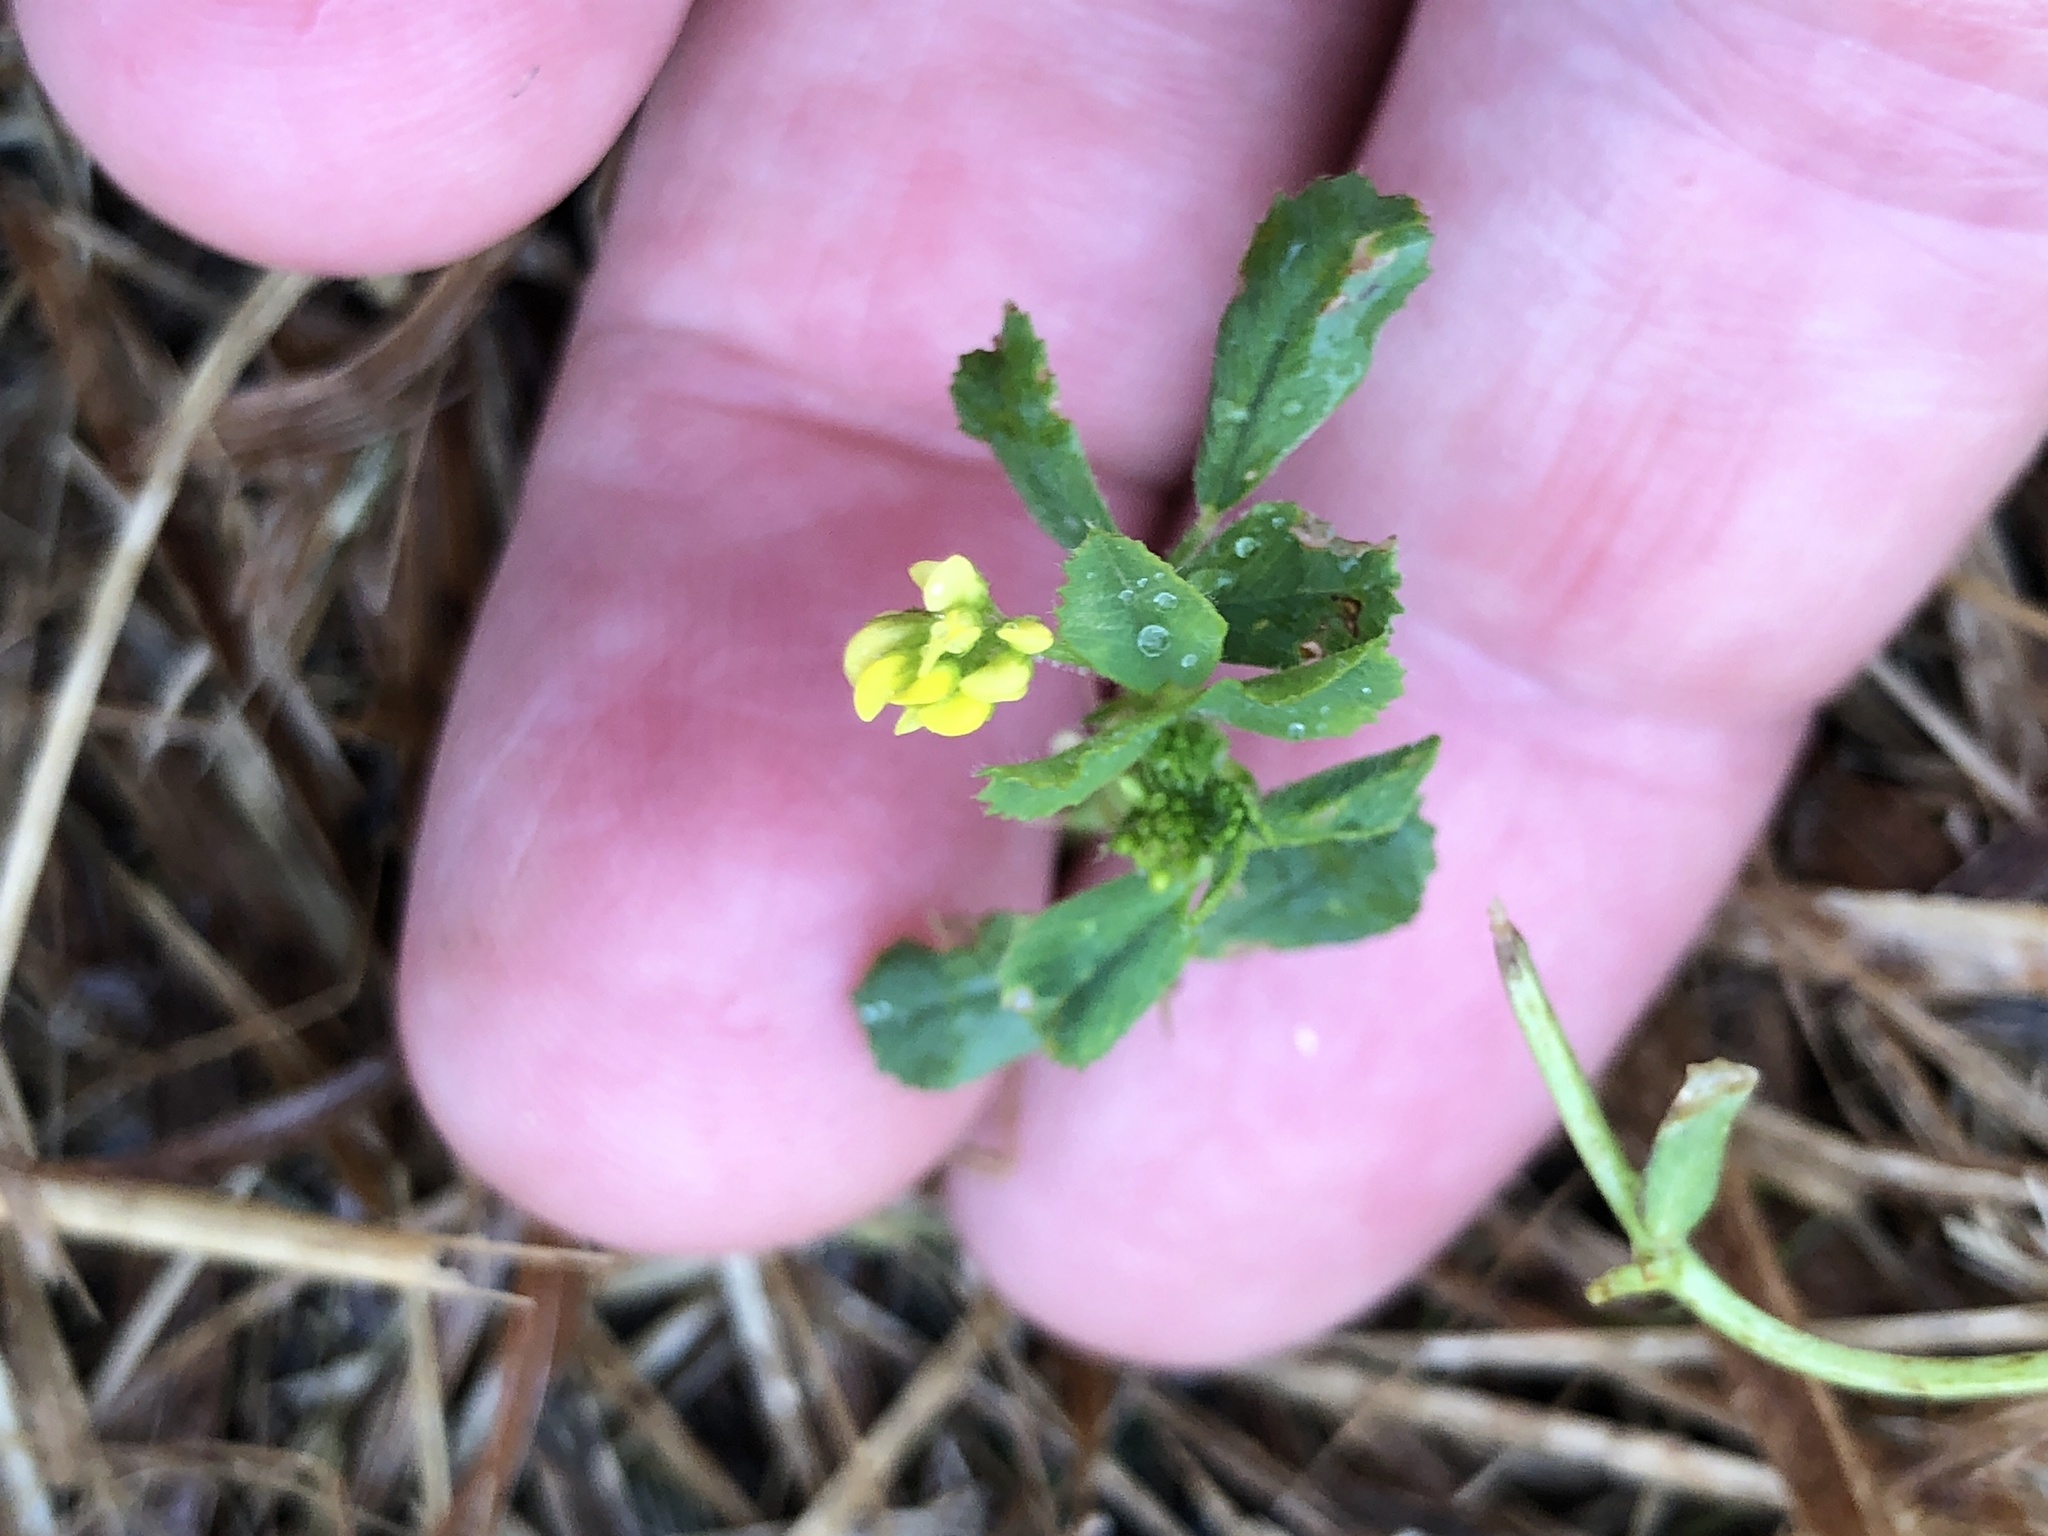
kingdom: Plantae
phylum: Tracheophyta
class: Magnoliopsida
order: Fabales
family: Fabaceae
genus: Medicago
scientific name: Medicago lupulina
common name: Black medick
